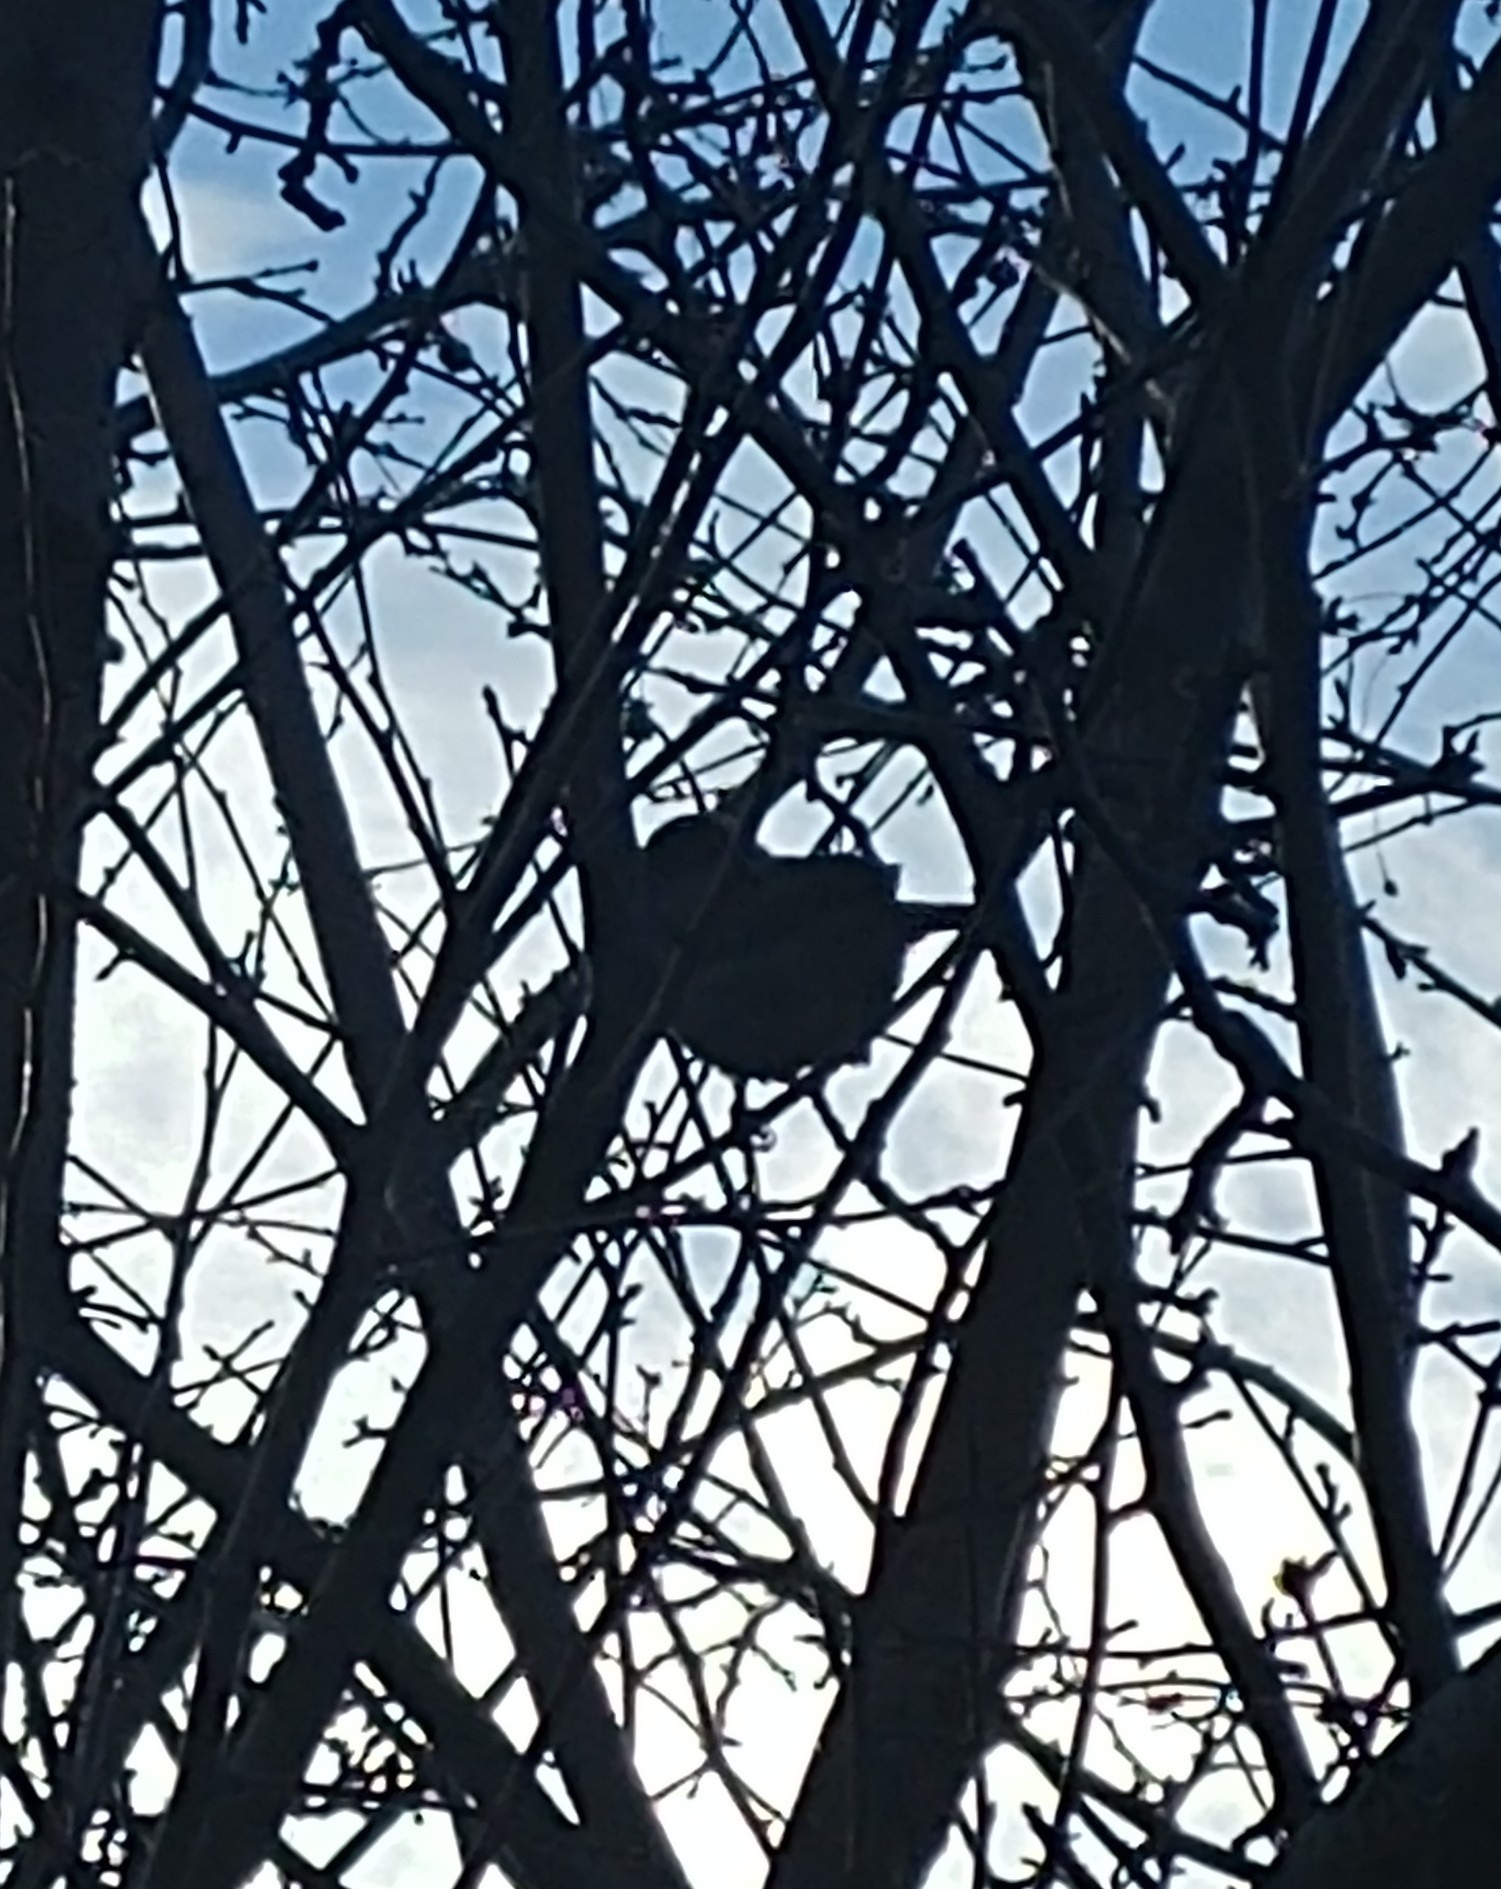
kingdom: Animalia
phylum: Chordata
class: Aves
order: Passeriformes
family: Passeridae
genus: Passer
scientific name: Passer domesticus
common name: House sparrow
